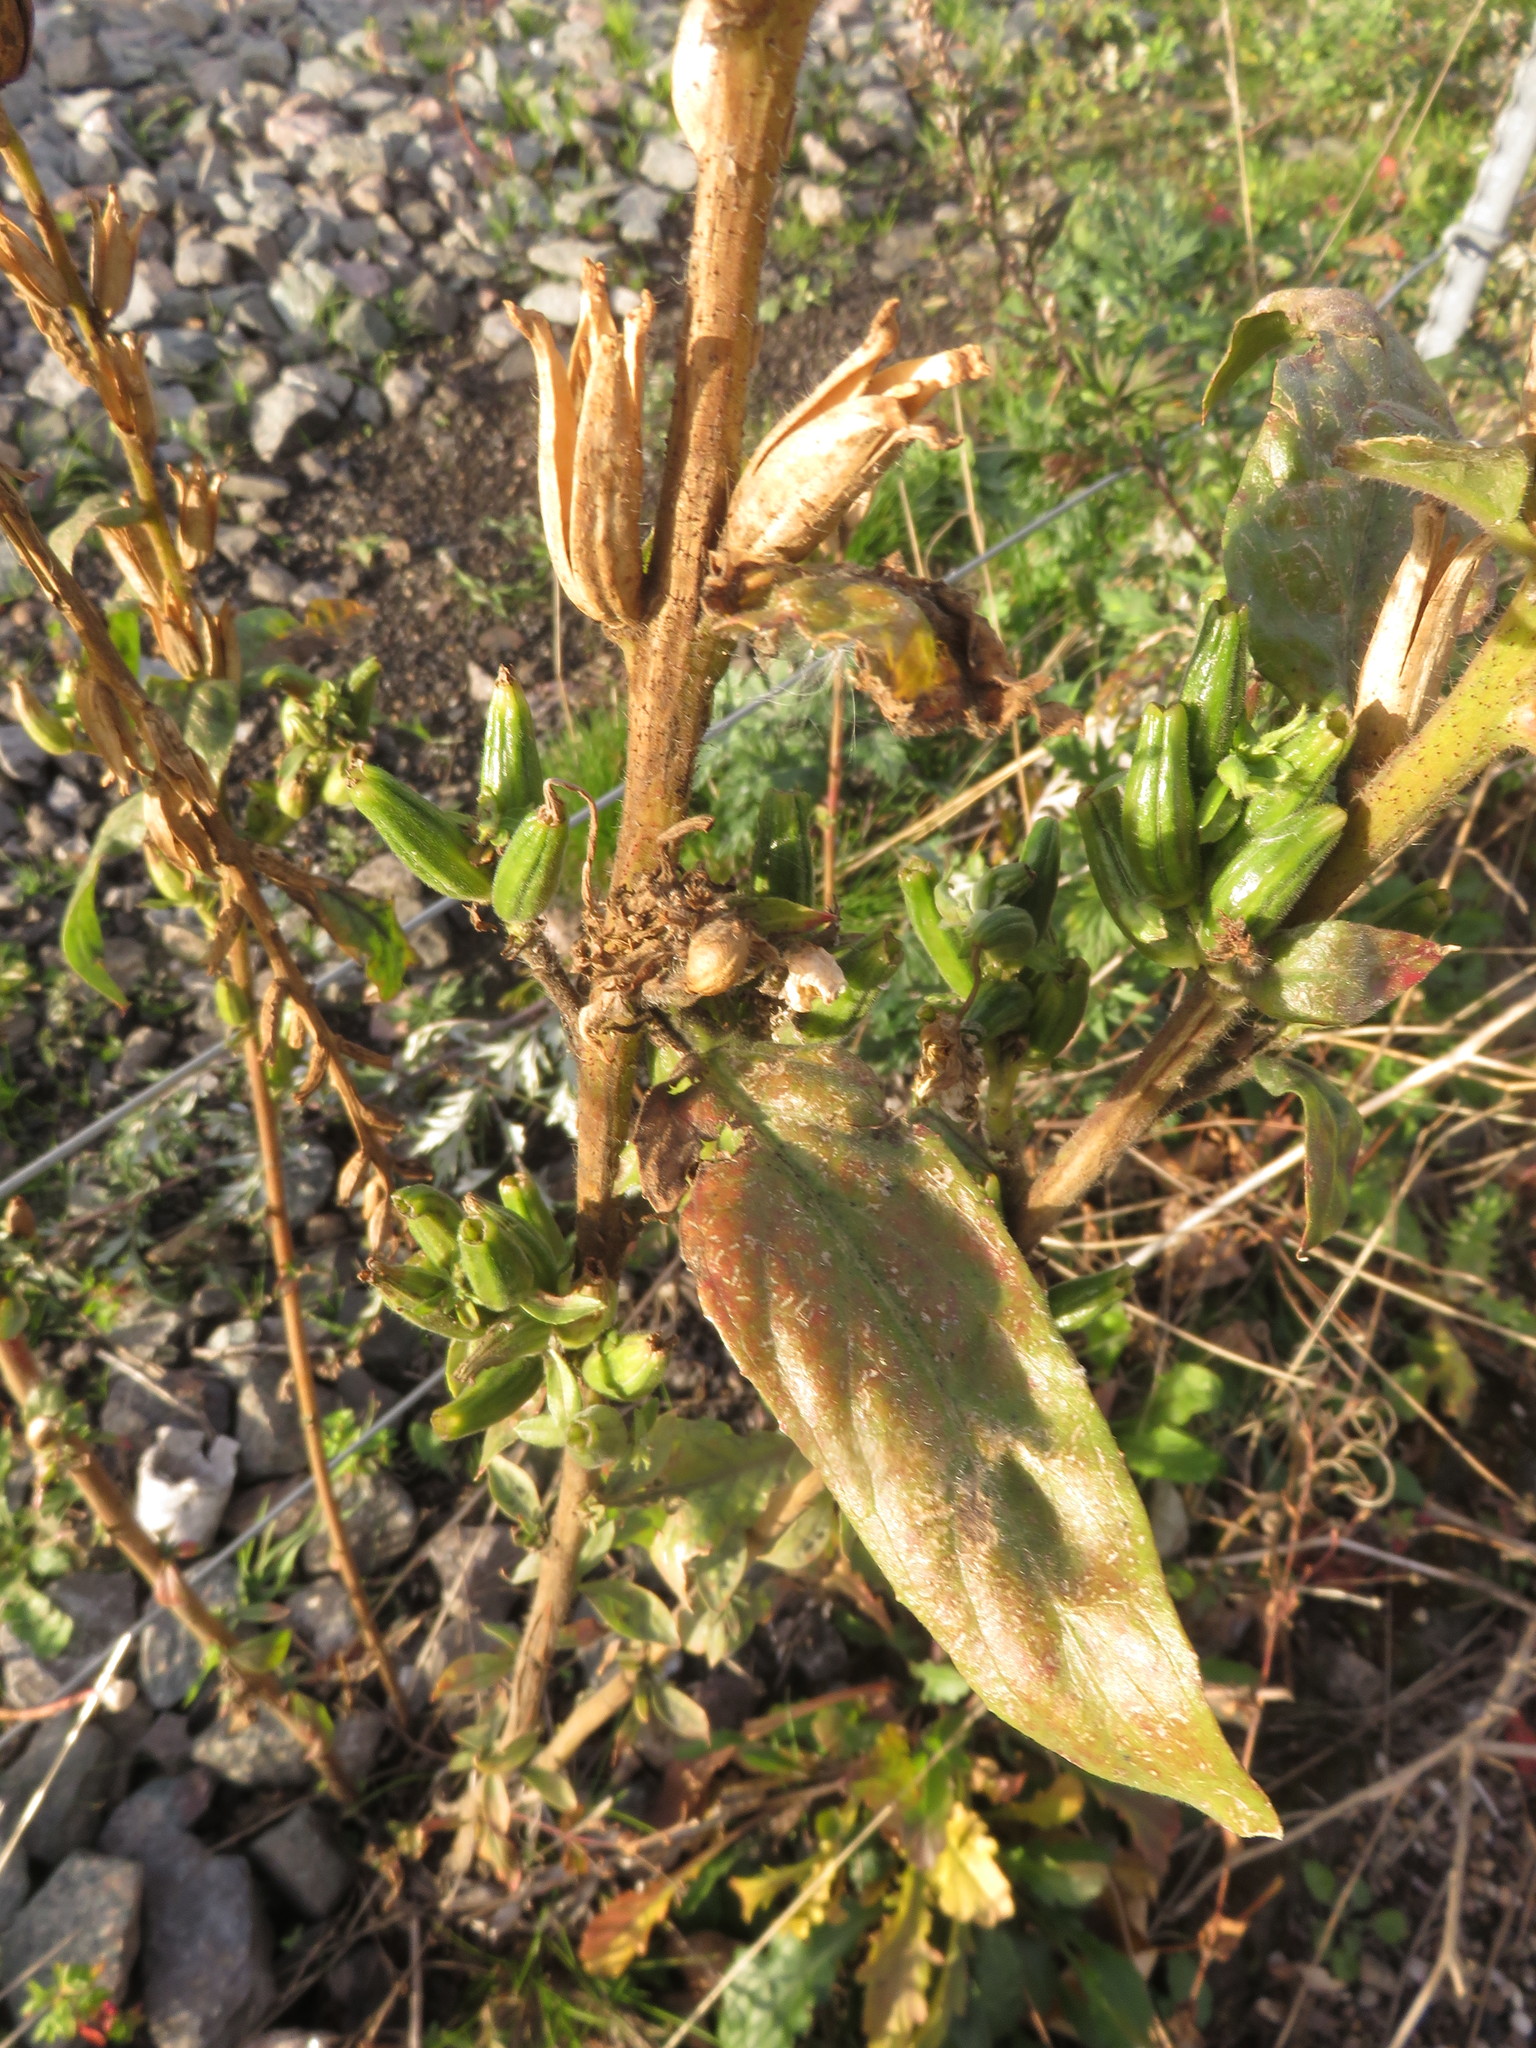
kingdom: Plantae
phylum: Tracheophyta
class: Magnoliopsida
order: Myrtales
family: Onagraceae
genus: Oenothera
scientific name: Oenothera cambrica
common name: Small-flowered evening-primrose
